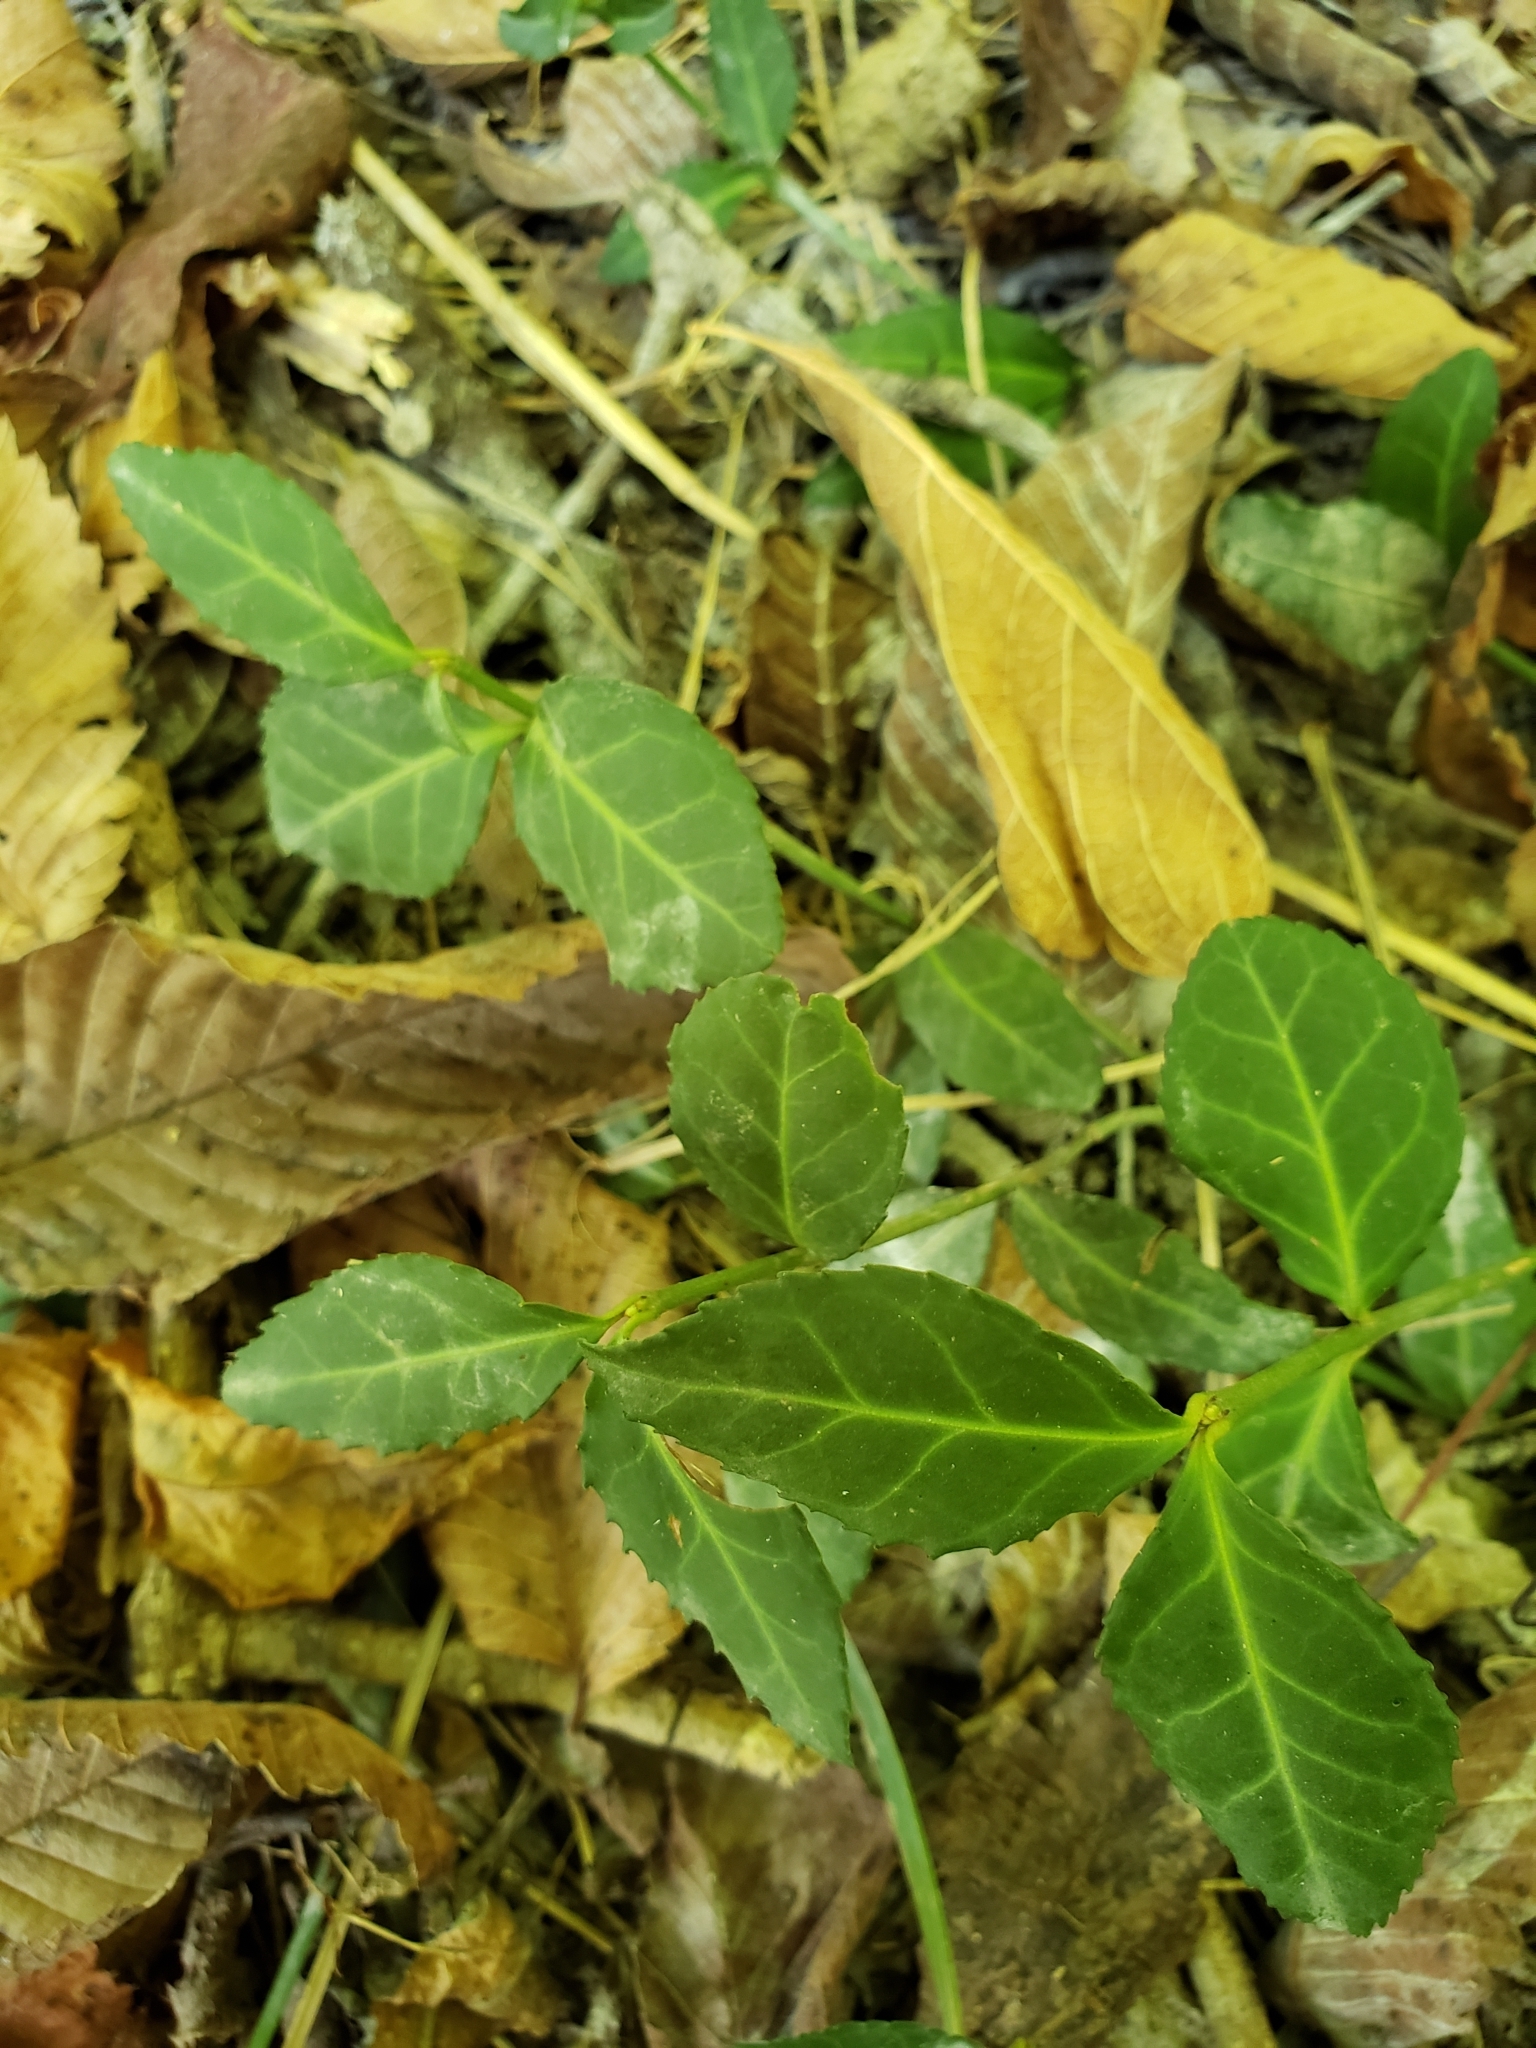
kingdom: Plantae
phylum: Tracheophyta
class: Magnoliopsida
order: Celastrales
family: Celastraceae
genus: Euonymus
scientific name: Euonymus fortunei
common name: Climbing euonymus
